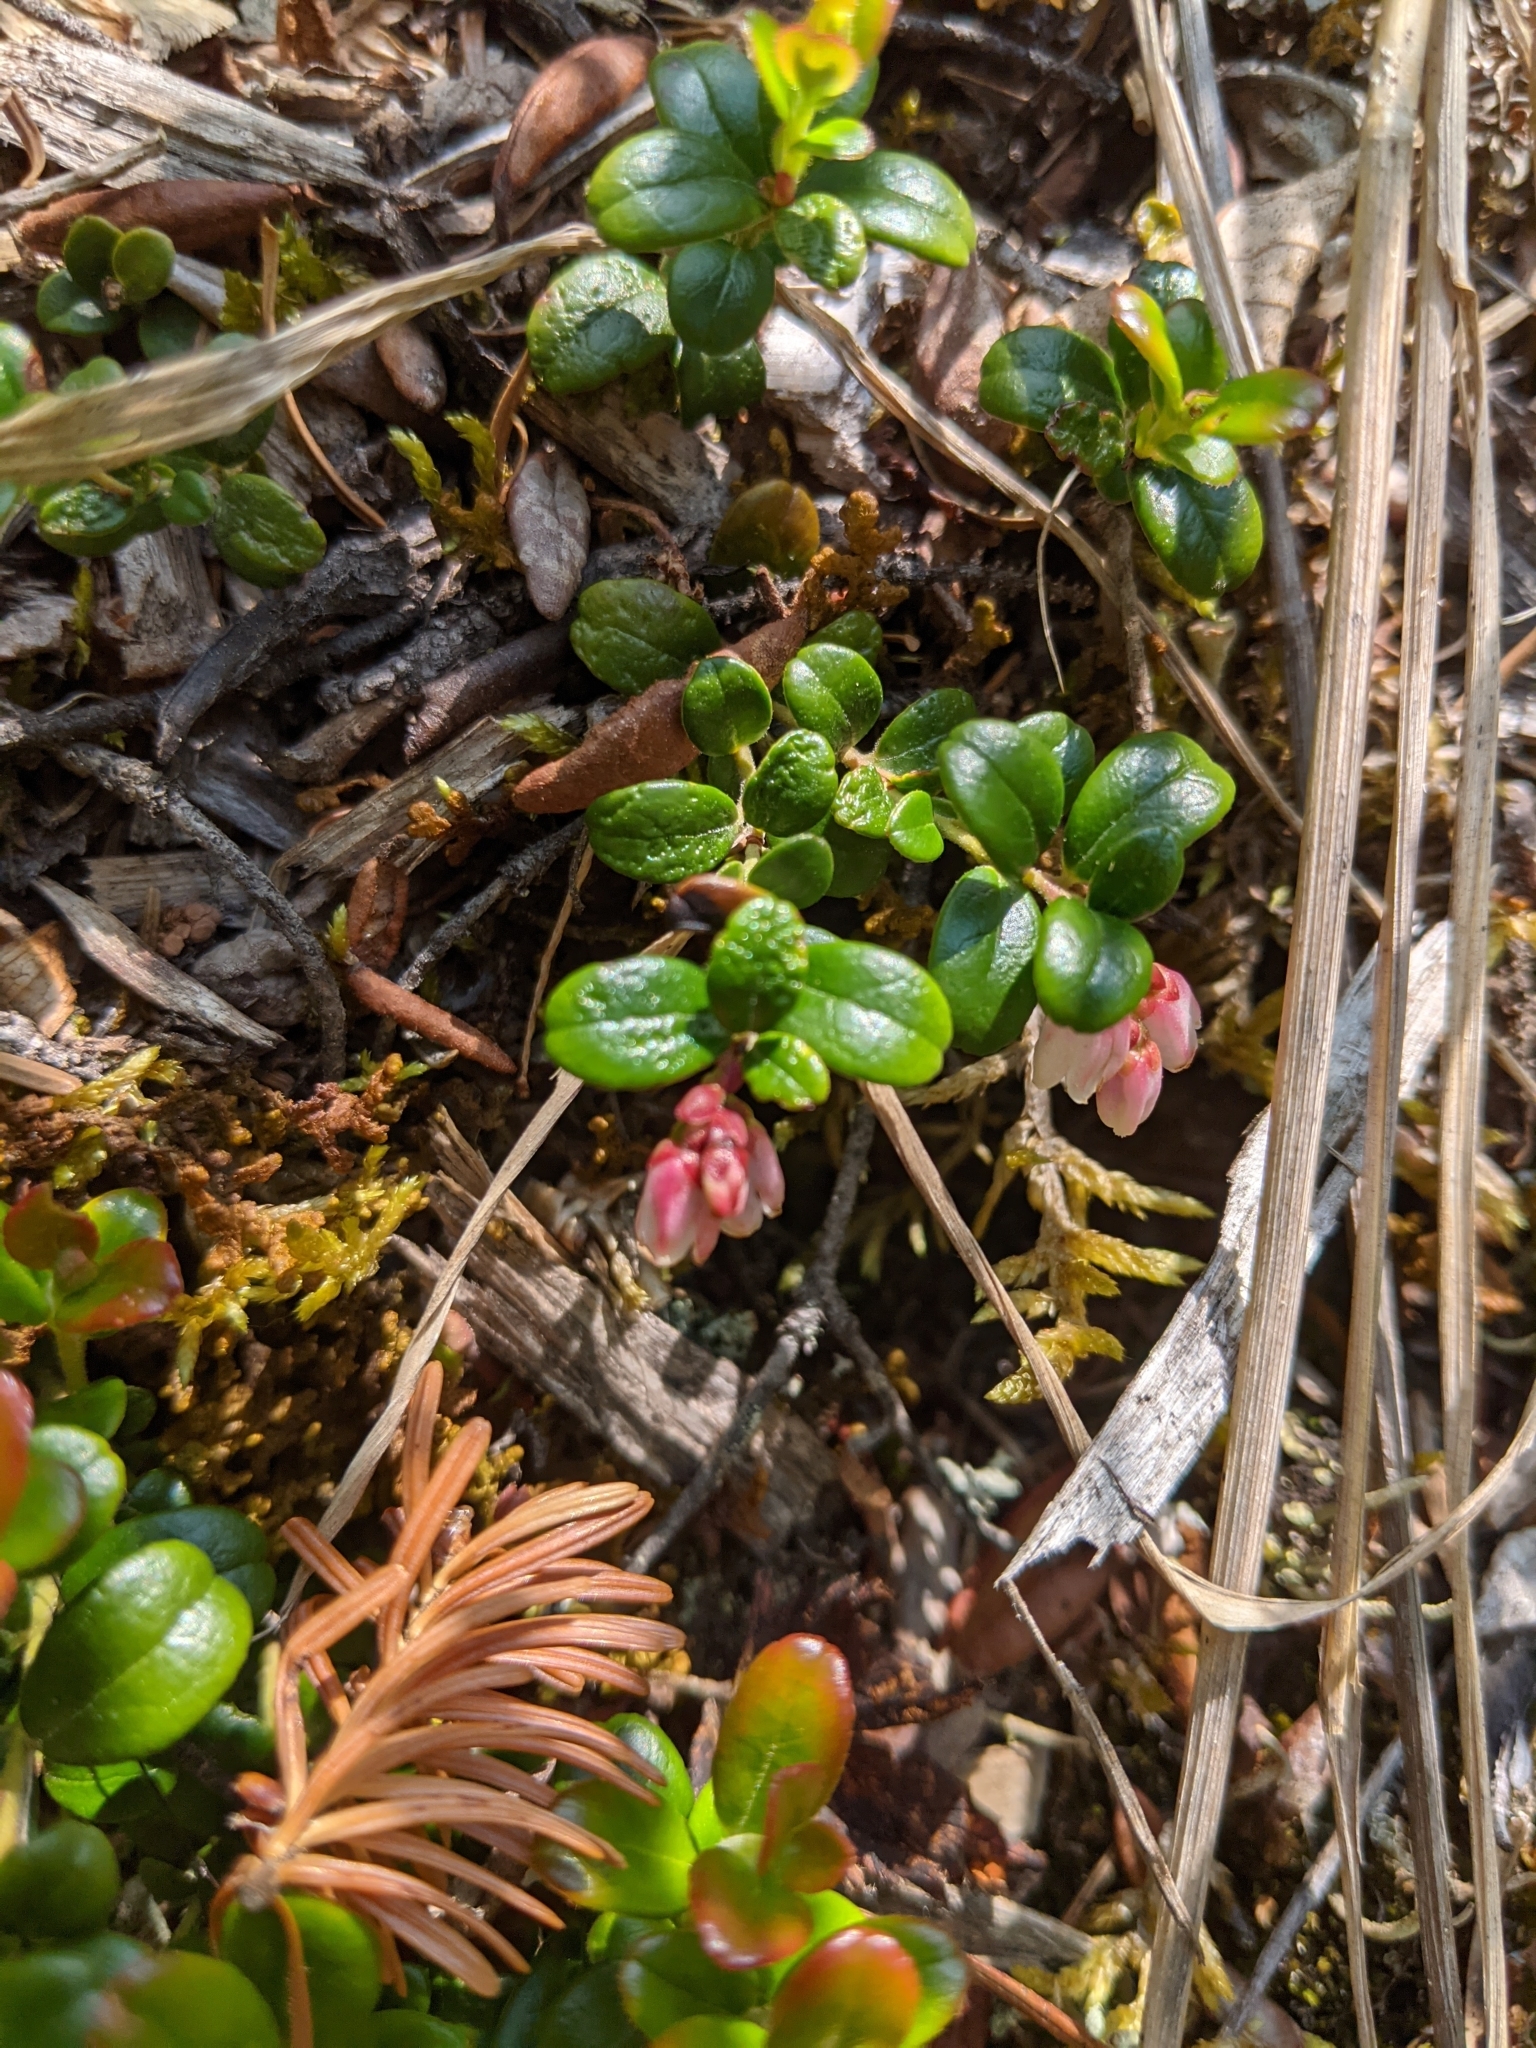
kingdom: Plantae
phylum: Tracheophyta
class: Magnoliopsida
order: Ericales
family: Ericaceae
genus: Vaccinium
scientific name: Vaccinium vitis-idaea
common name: Cowberry
